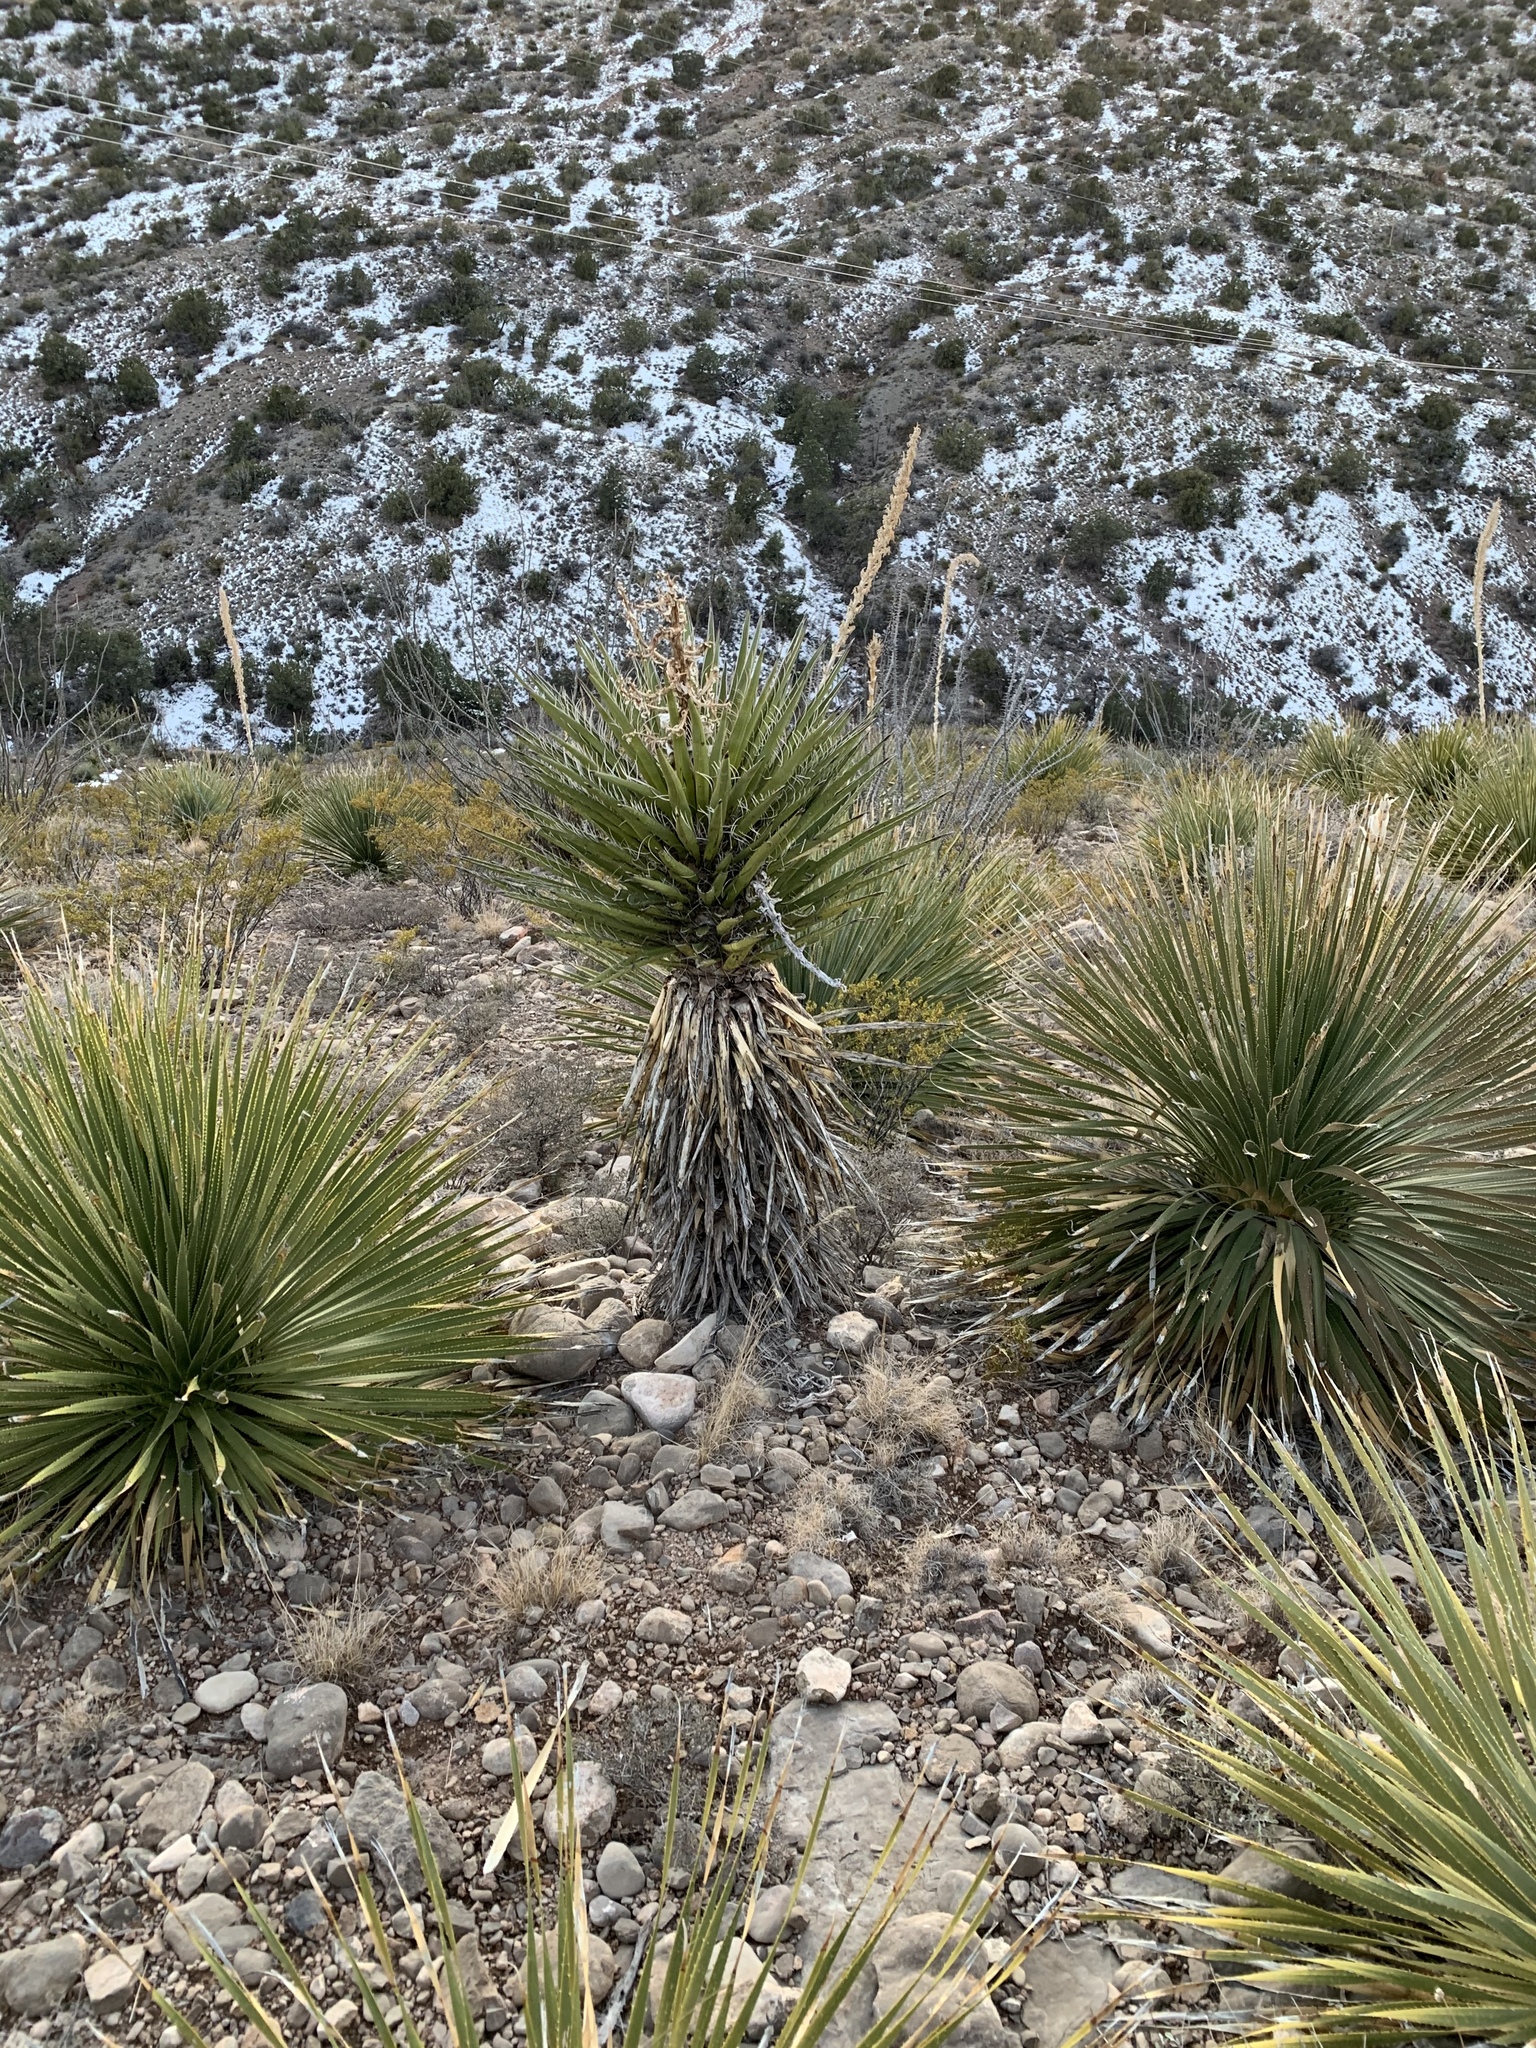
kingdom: Plantae
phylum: Tracheophyta
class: Liliopsida
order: Asparagales
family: Asparagaceae
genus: Yucca
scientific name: Yucca treculiana
